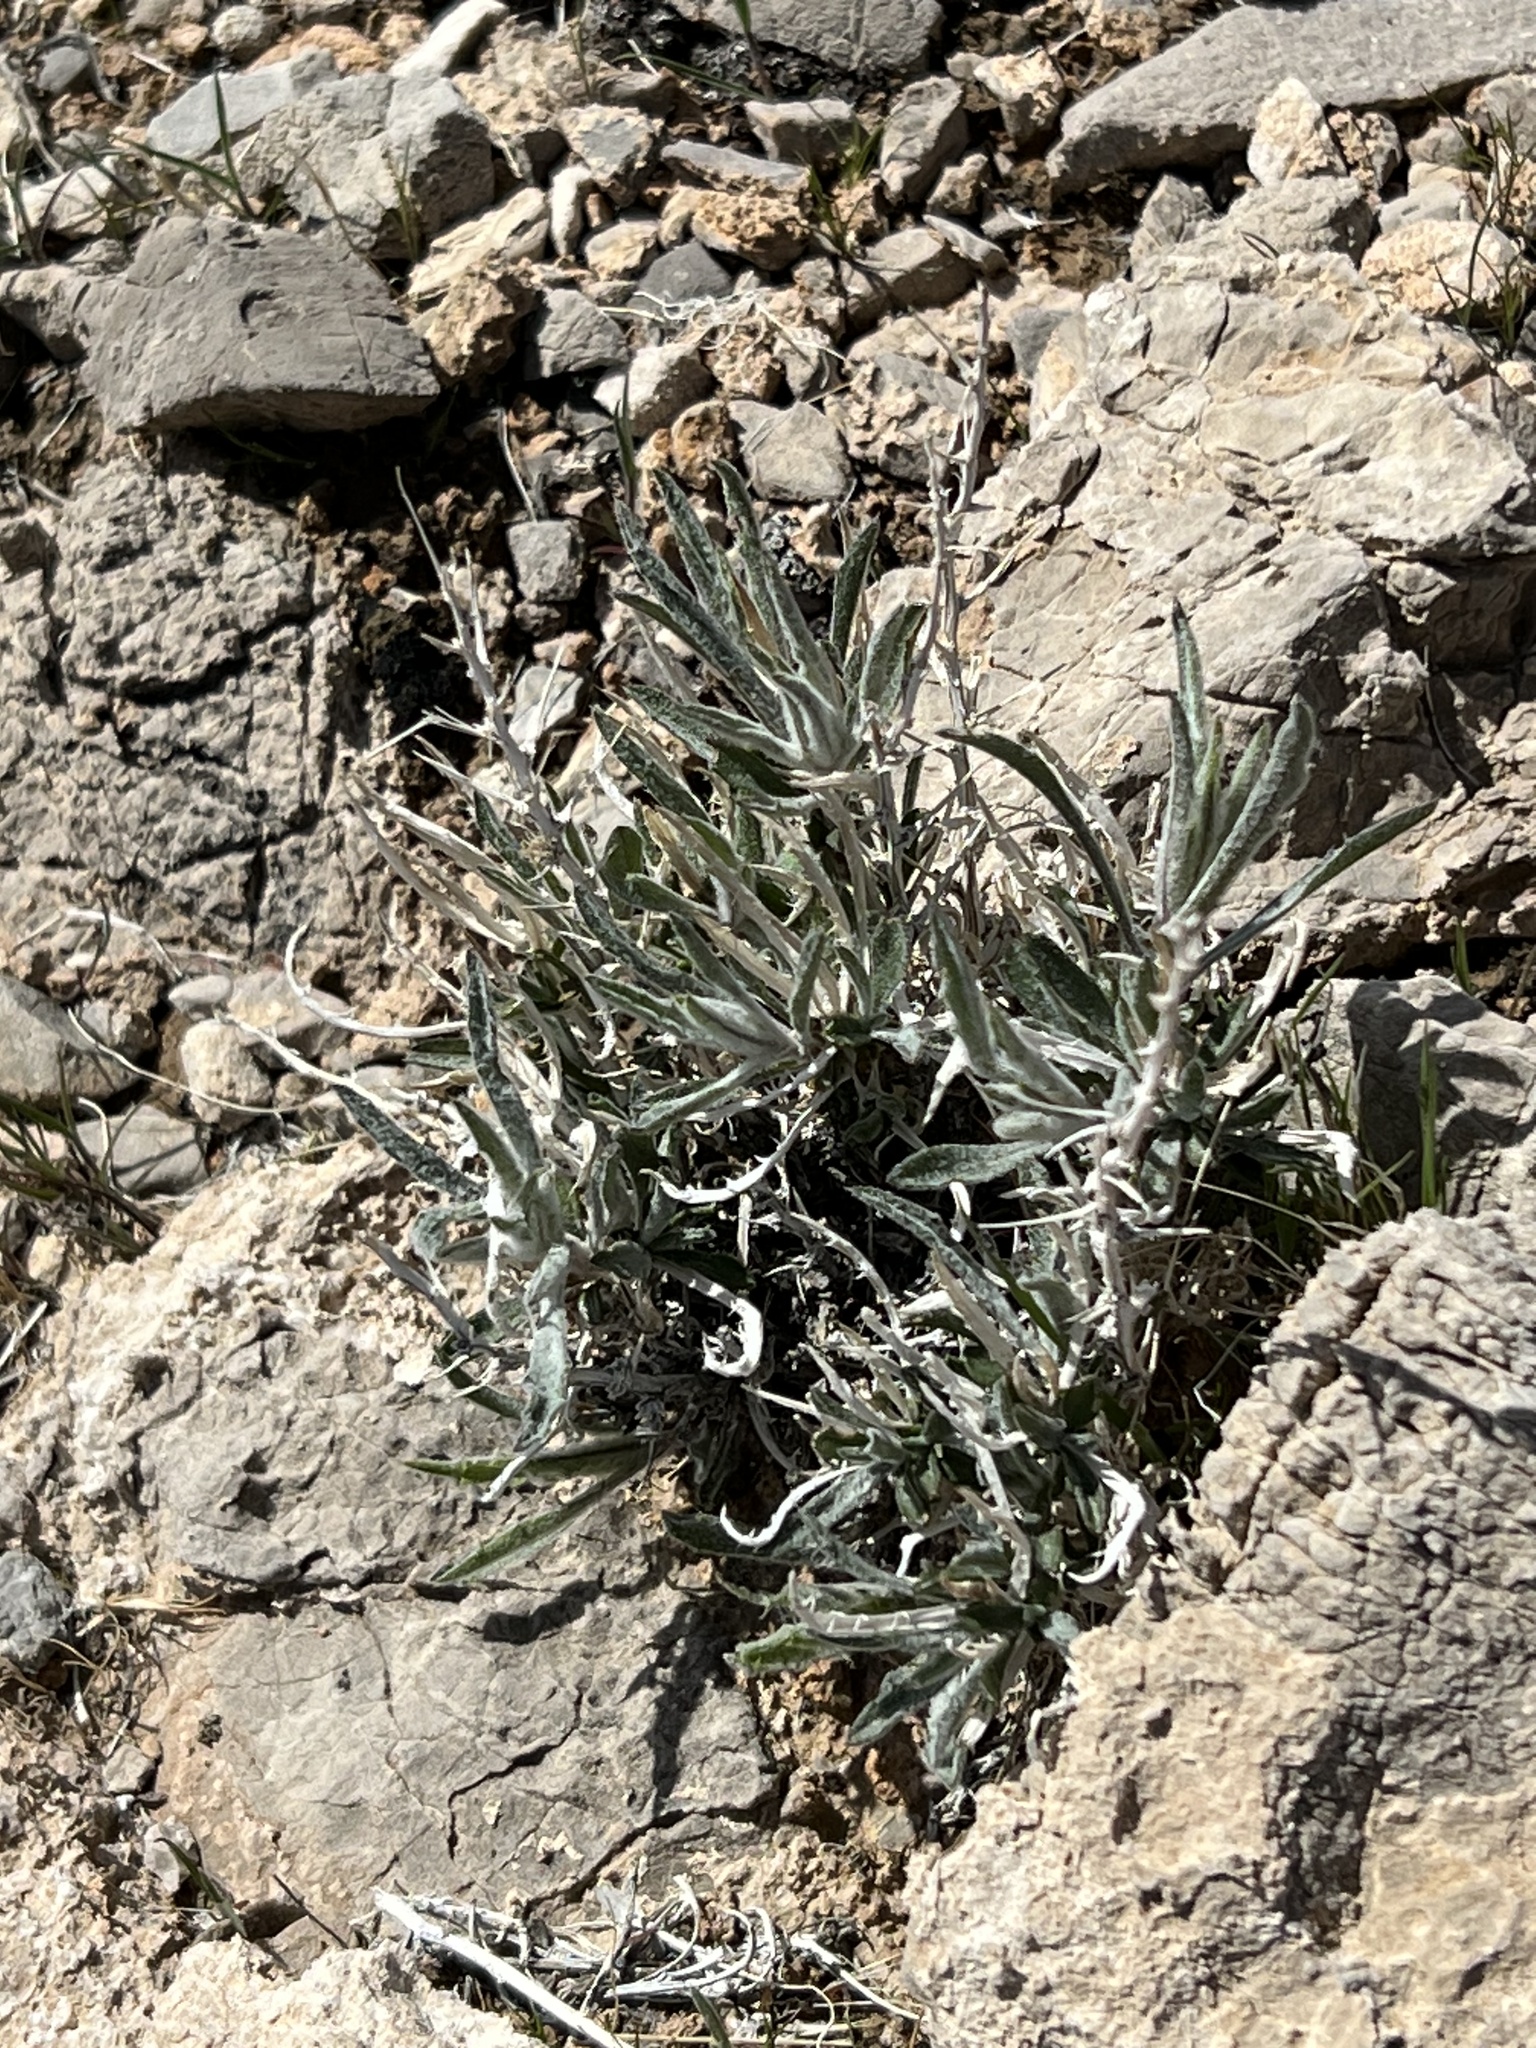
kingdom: Plantae
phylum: Tracheophyta
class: Magnoliopsida
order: Asterales
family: Asteraceae
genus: Xylorhiza
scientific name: Xylorhiza tortifolia
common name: Hurt-leaf woody-aster
